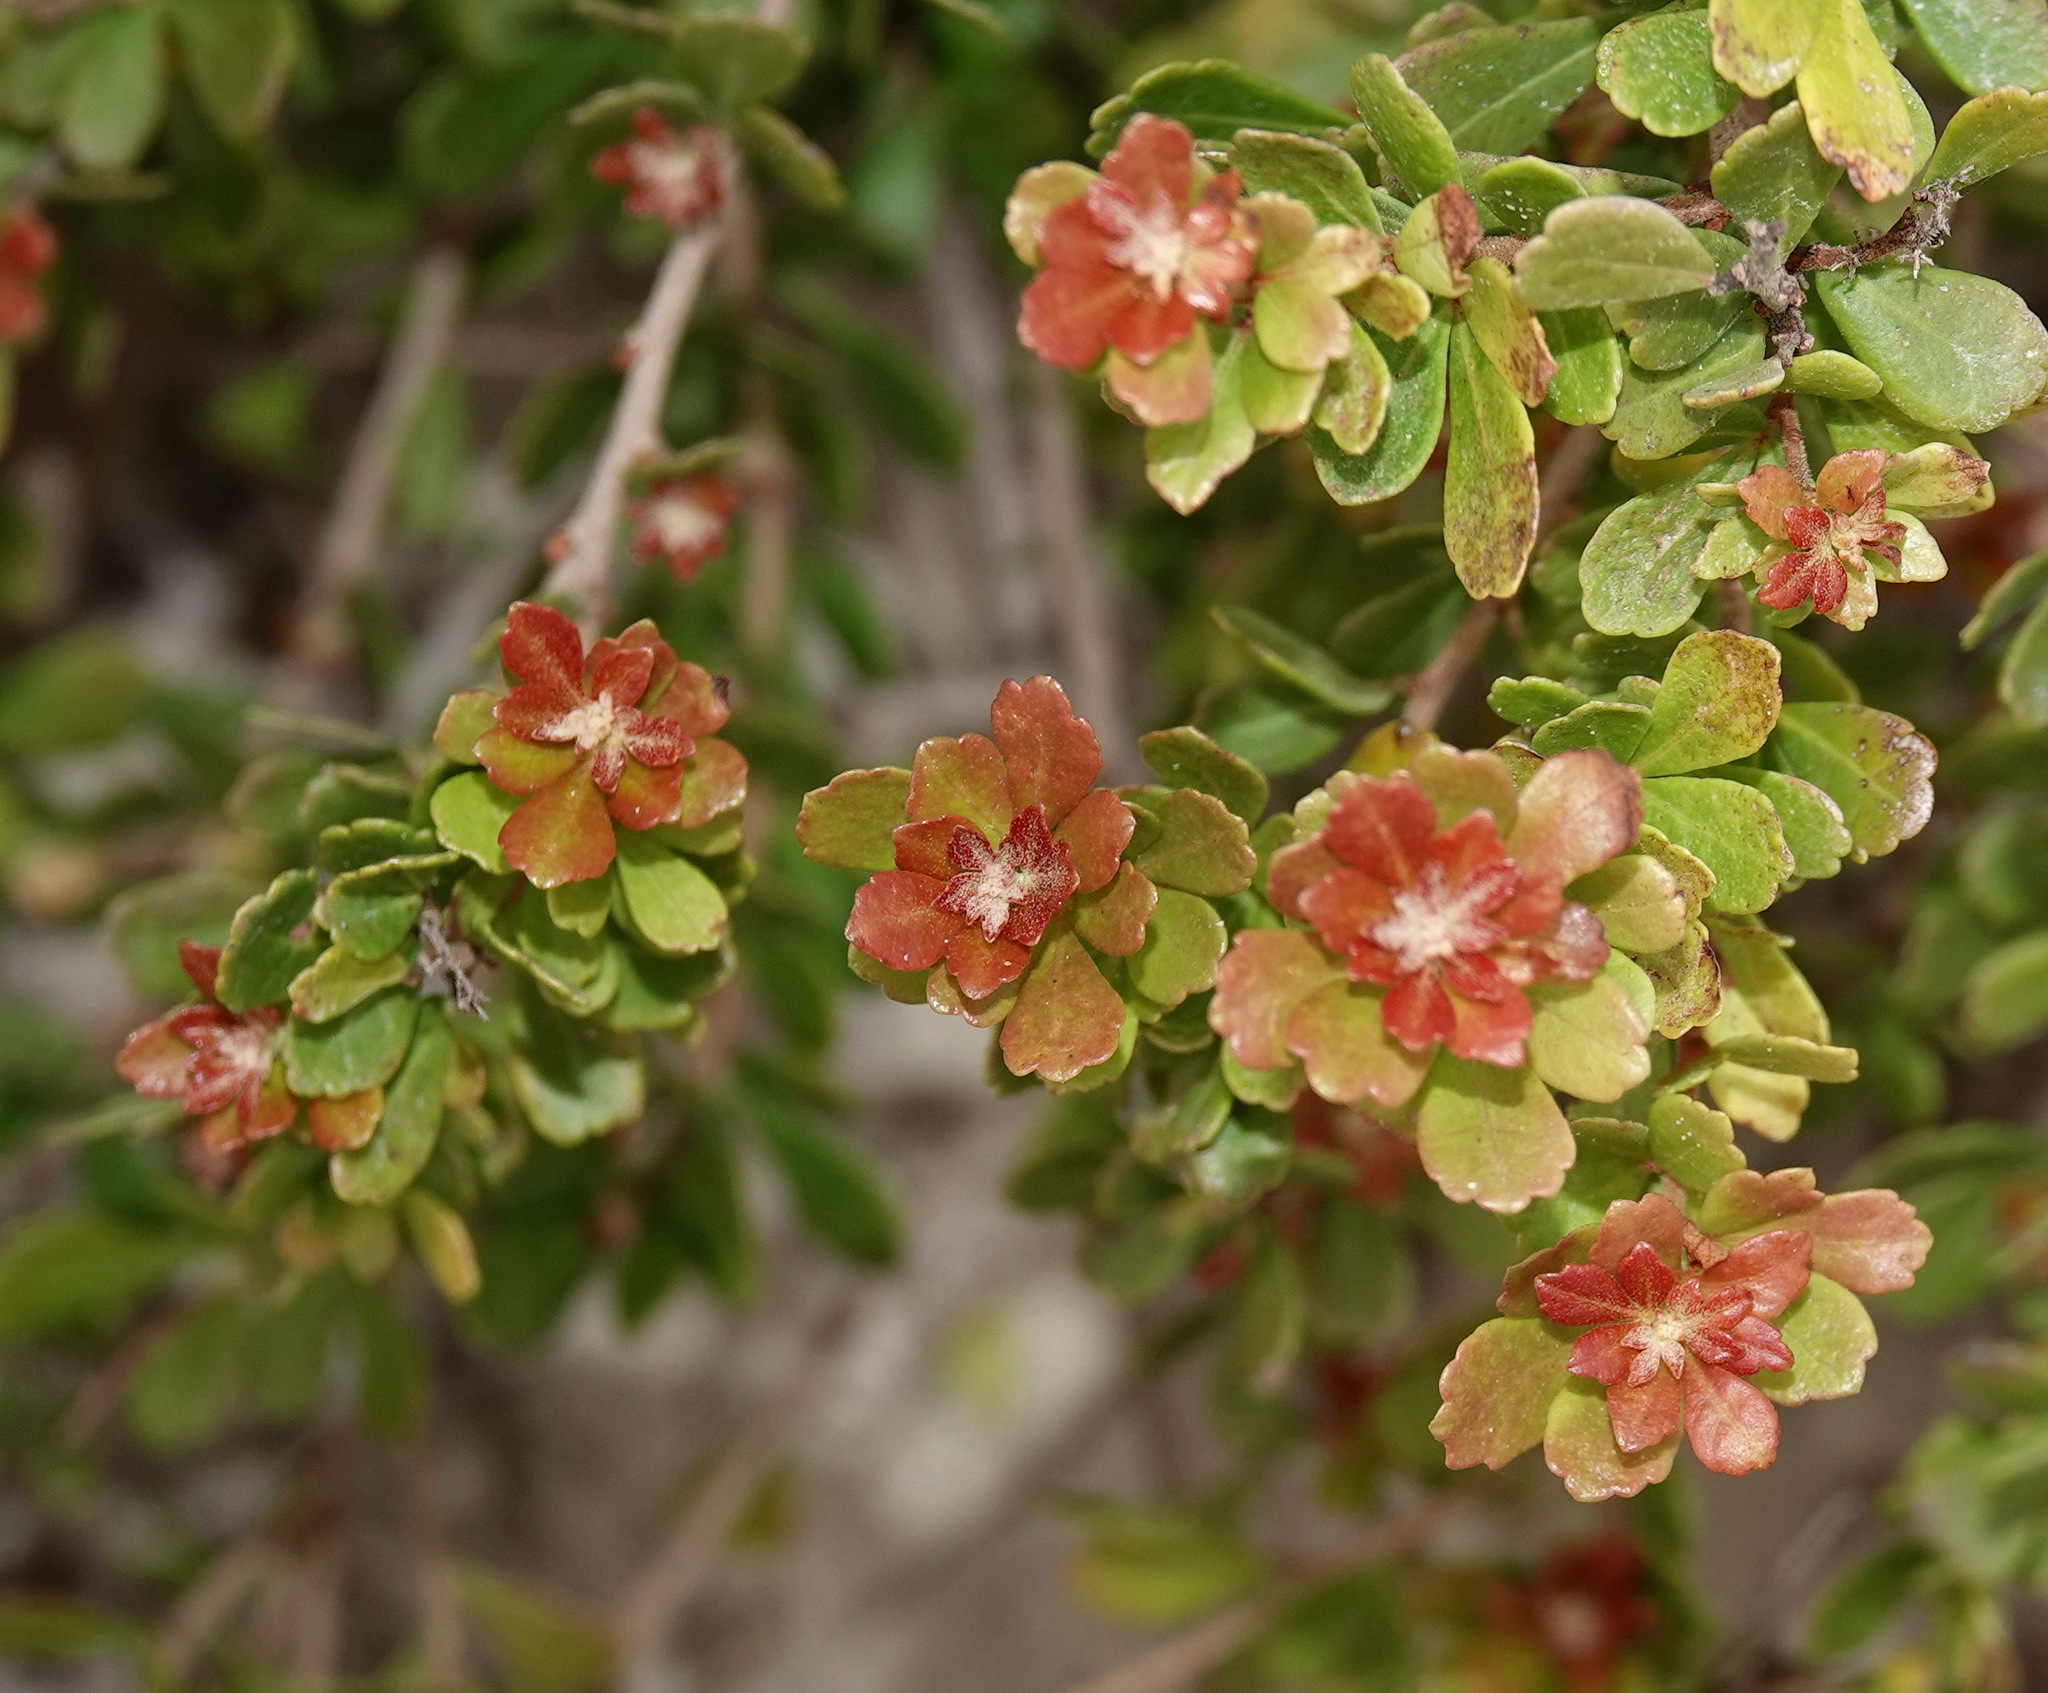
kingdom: Plantae
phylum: Tracheophyta
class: Magnoliopsida
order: Sapindales
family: Anacardiaceae
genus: Searsia
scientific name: Searsia crenata
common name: Crowberry
